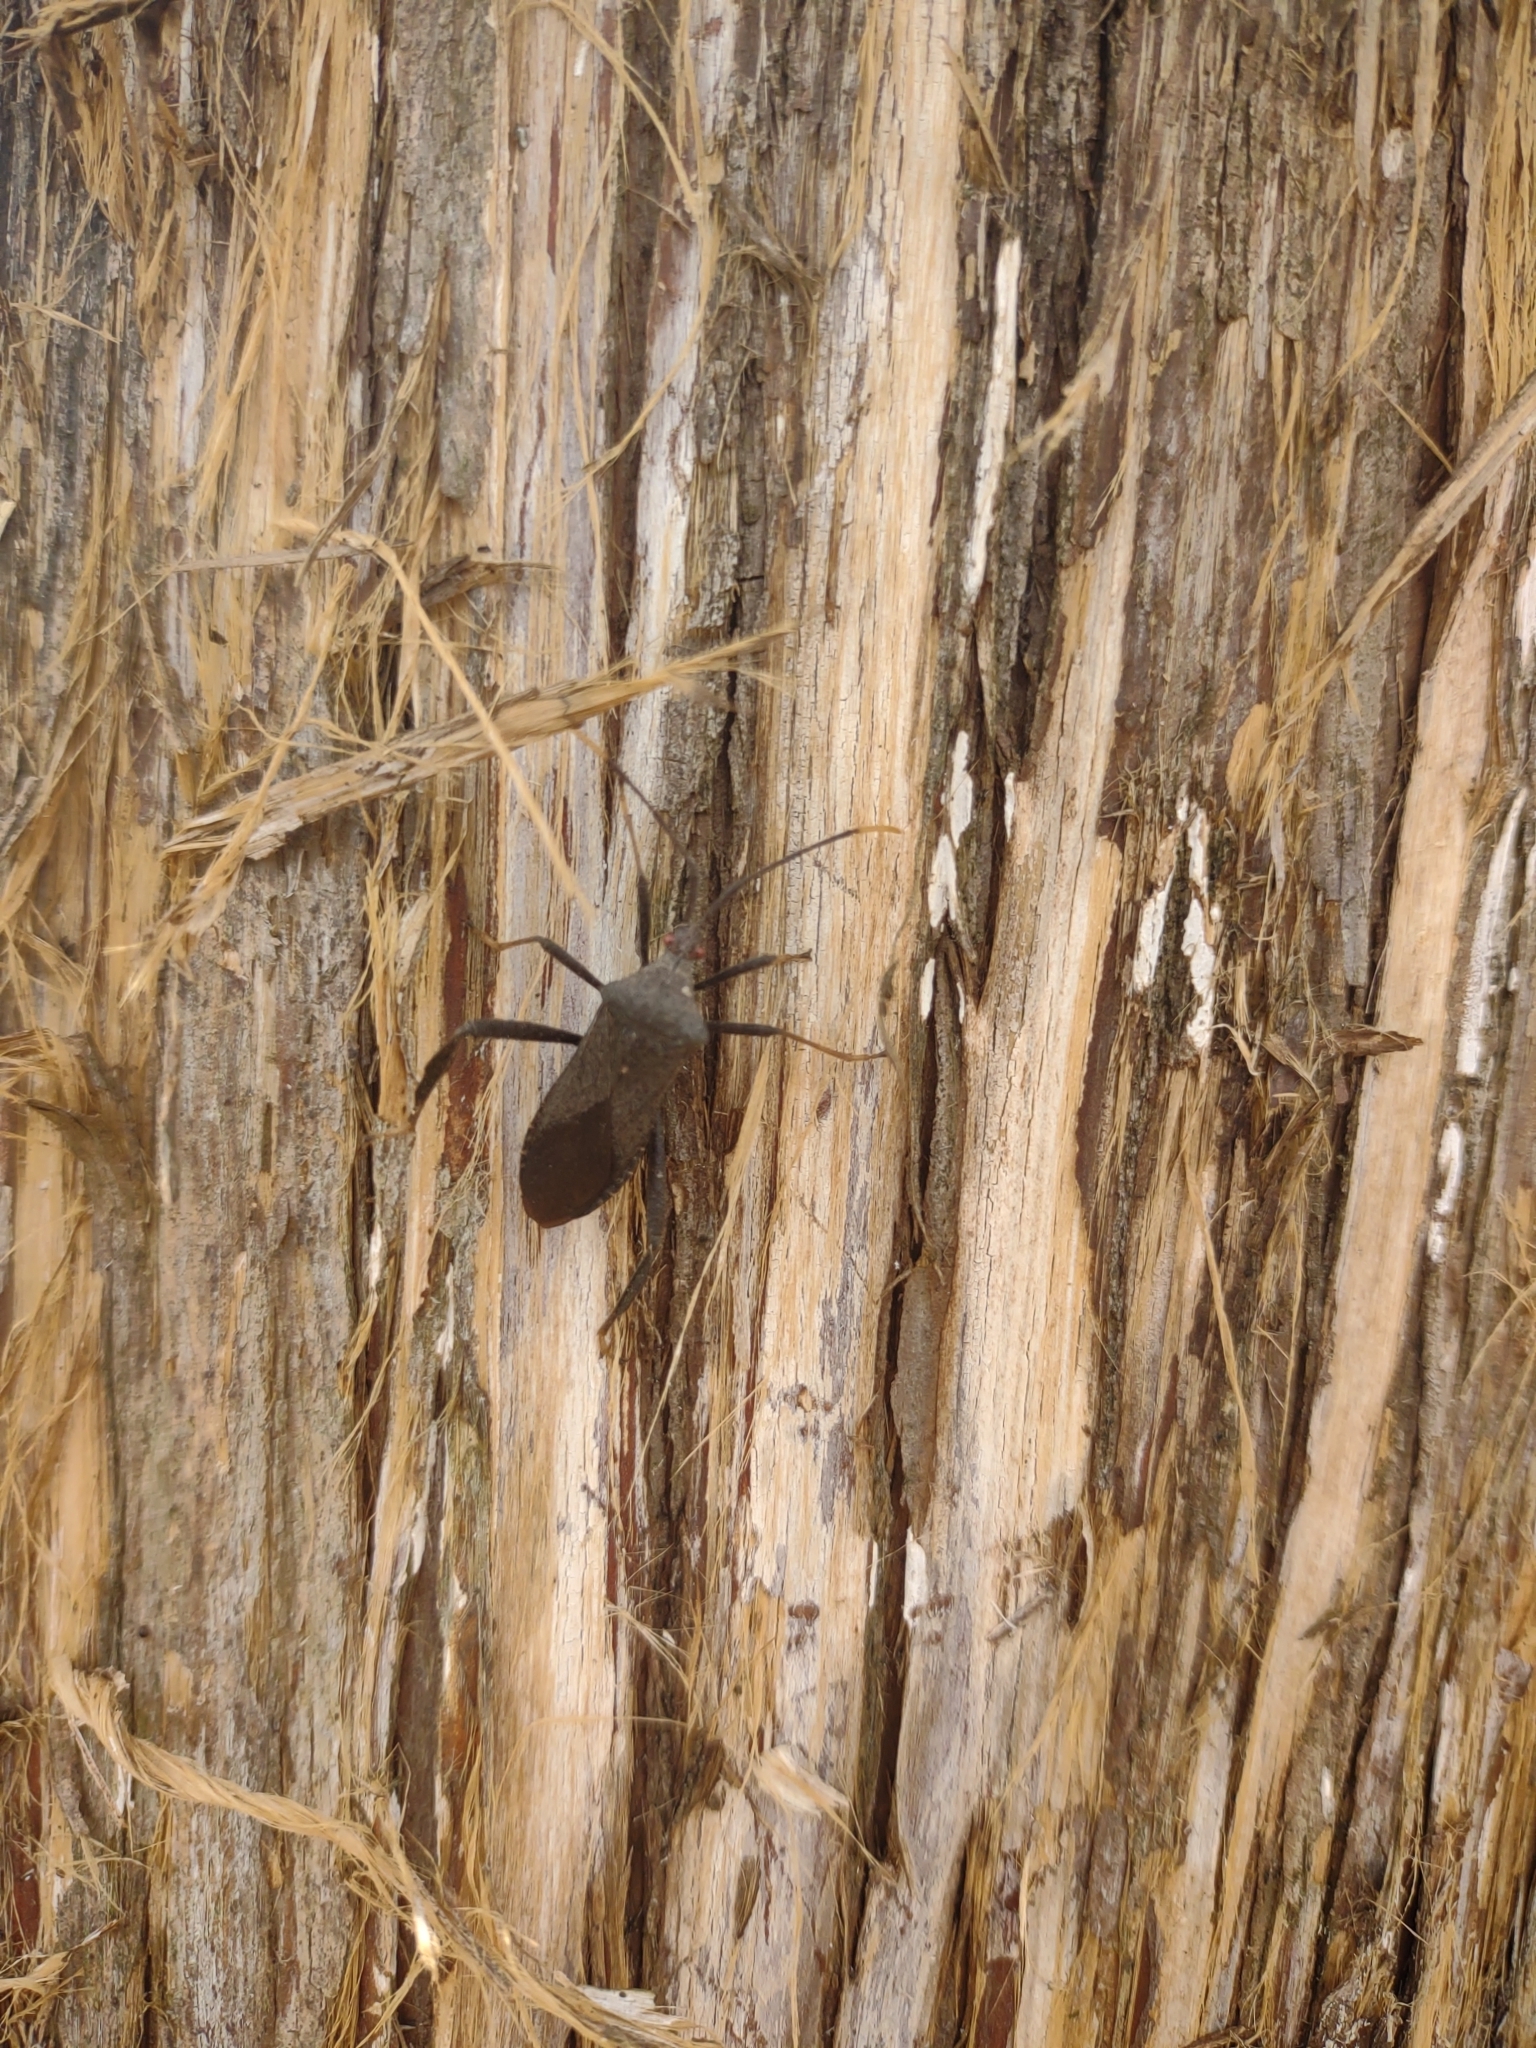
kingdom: Animalia
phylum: Arthropoda
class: Insecta
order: Hemiptera
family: Coreidae
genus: Acanthocephala
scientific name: Acanthocephala terminalis
